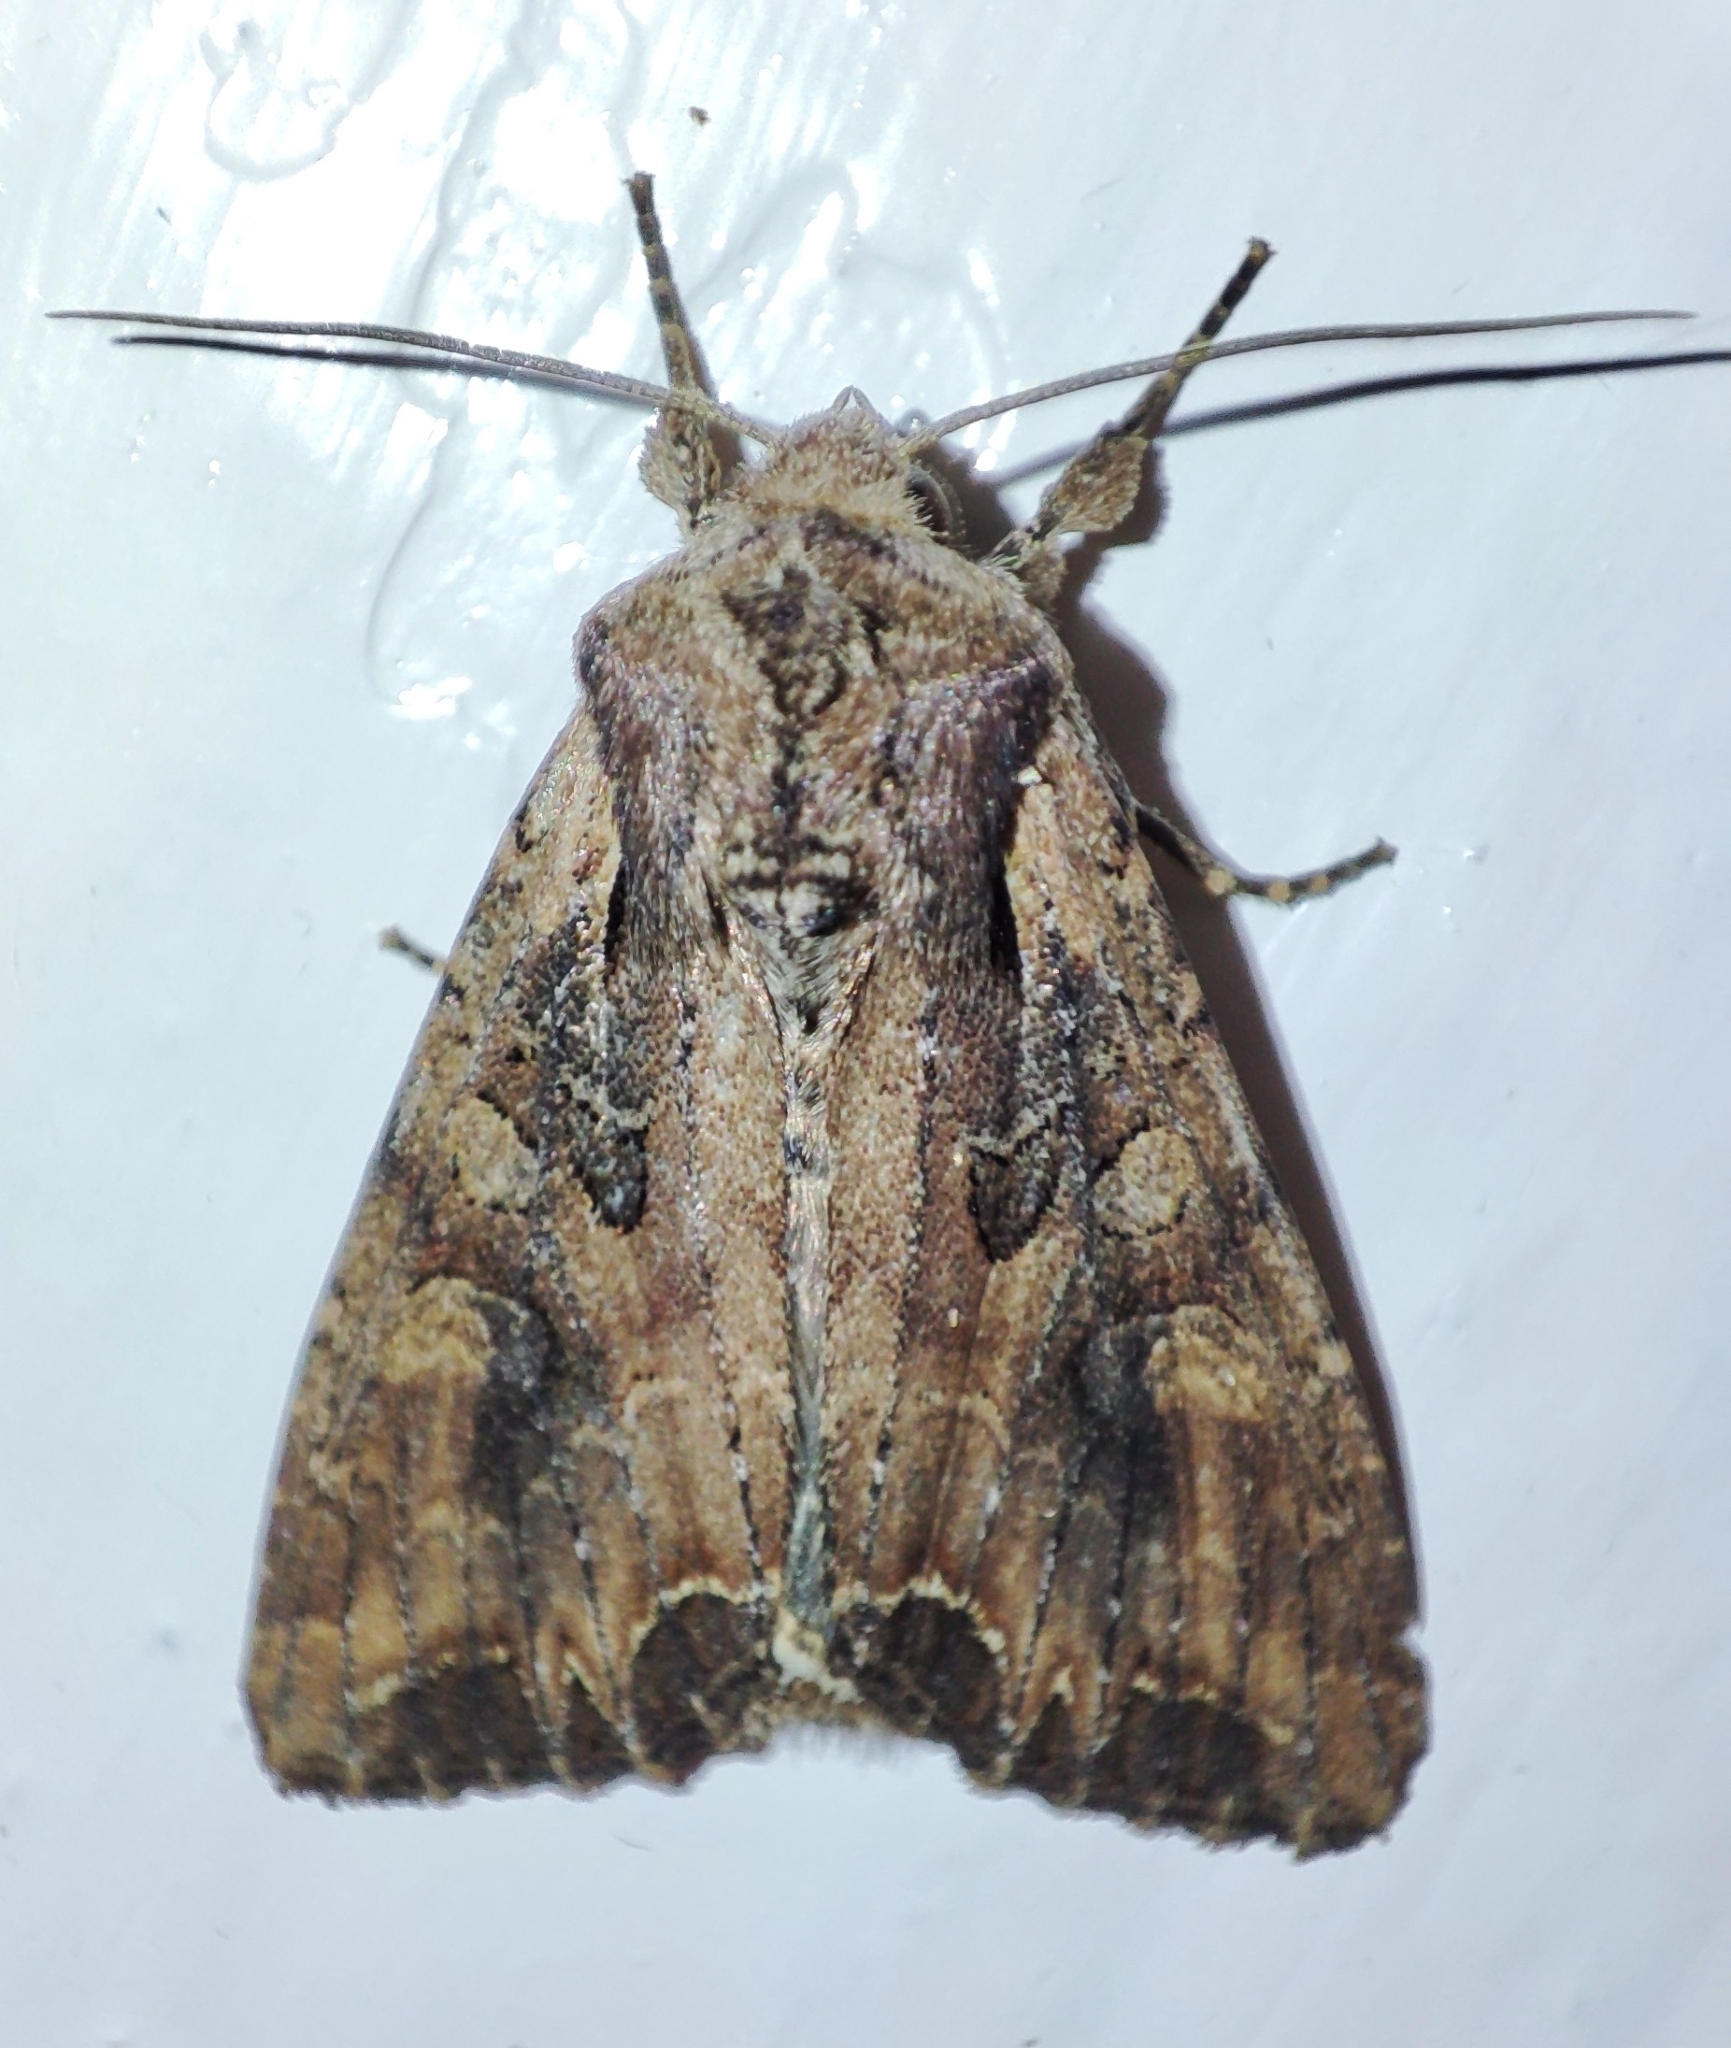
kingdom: Animalia
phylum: Arthropoda
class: Insecta
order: Lepidoptera
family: Noctuidae
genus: Lacanobia
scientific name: Lacanobia suasa
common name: Dog's tooth
